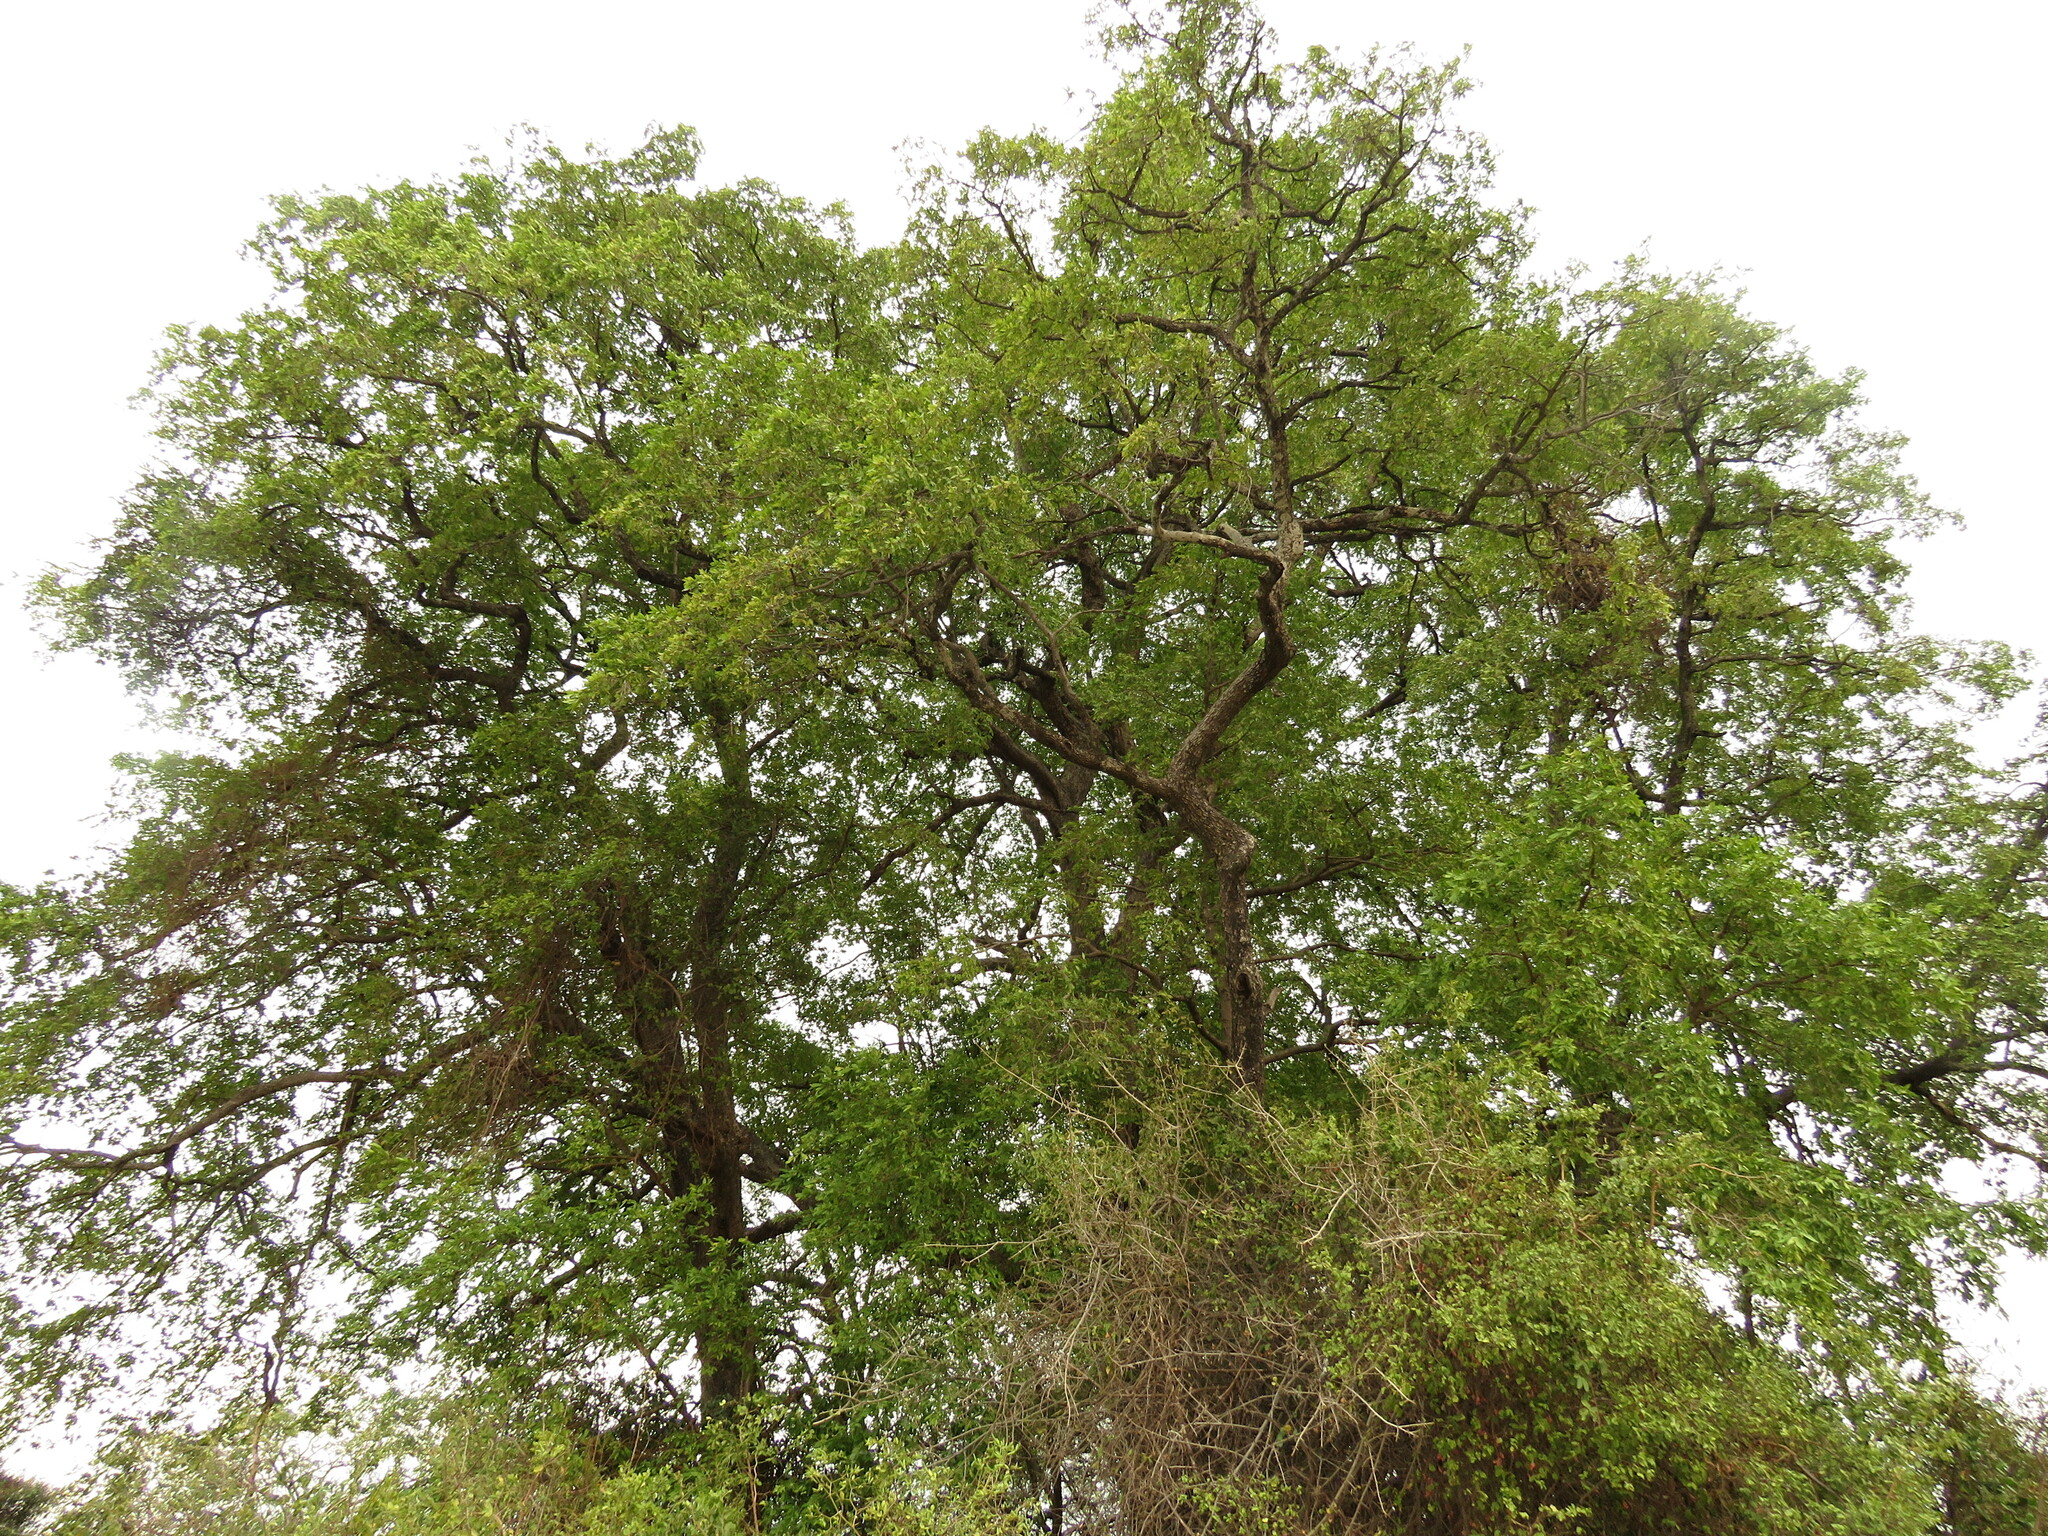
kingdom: Plantae
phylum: Tracheophyta
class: Magnoliopsida
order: Ericales
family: Ebenaceae
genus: Diospyros
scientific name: Diospyros mespiliformis
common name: Ebony diospyros
